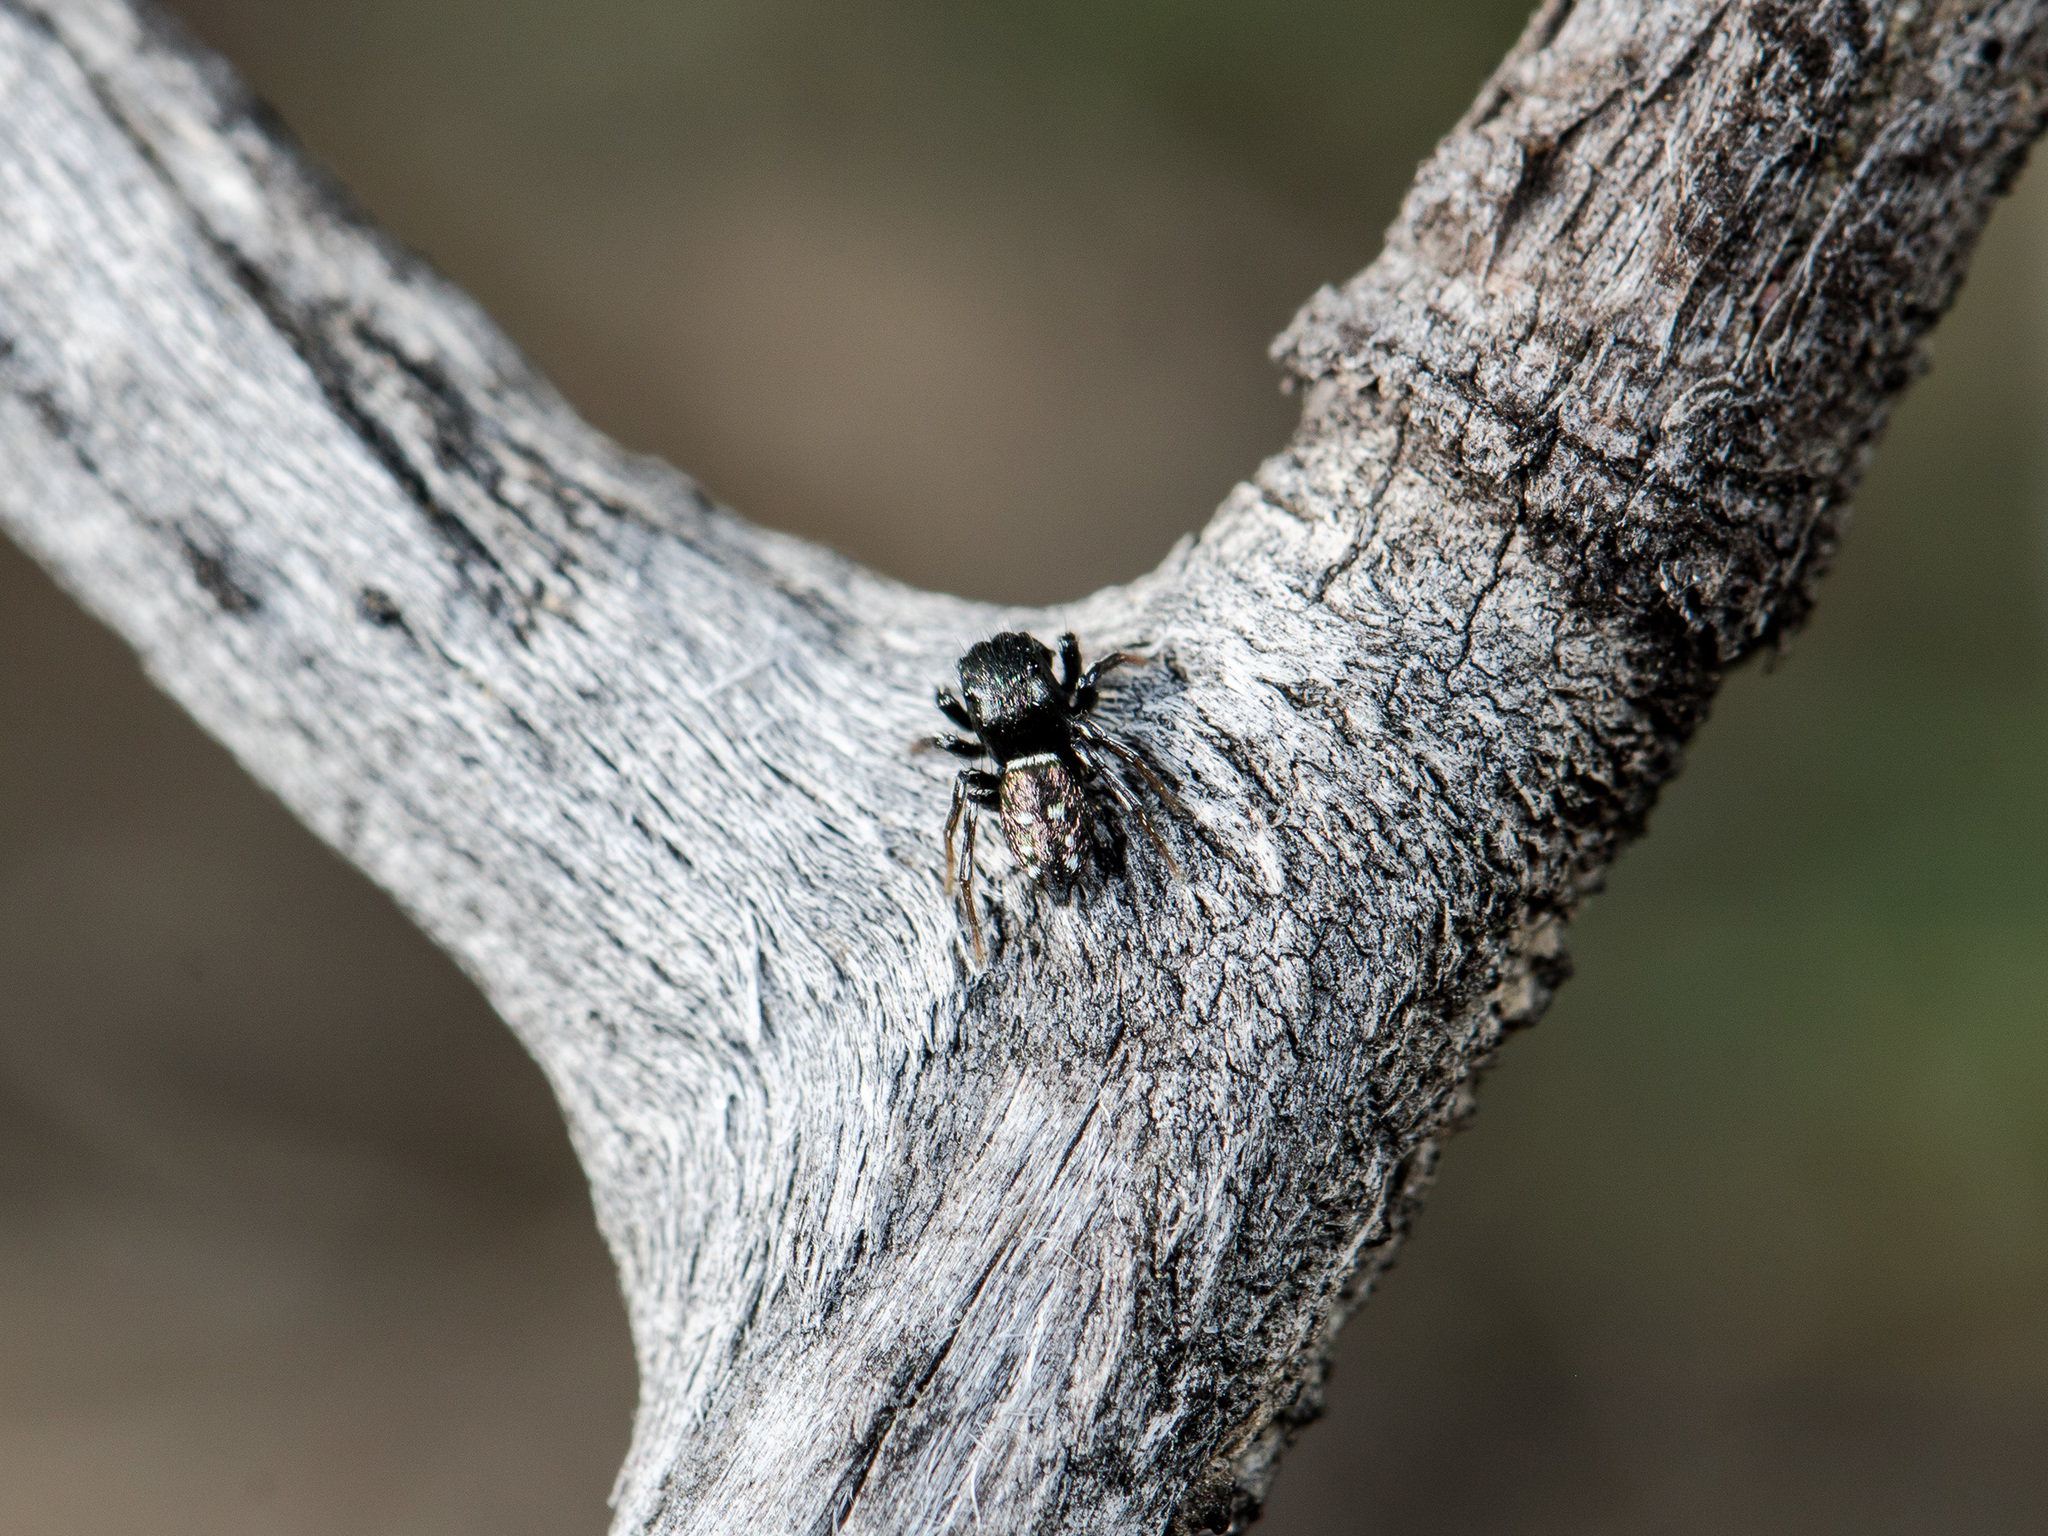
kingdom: Animalia
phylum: Arthropoda
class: Arachnida
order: Araneae
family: Salticidae
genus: Heliophanus
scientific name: Heliophanus curvidens
